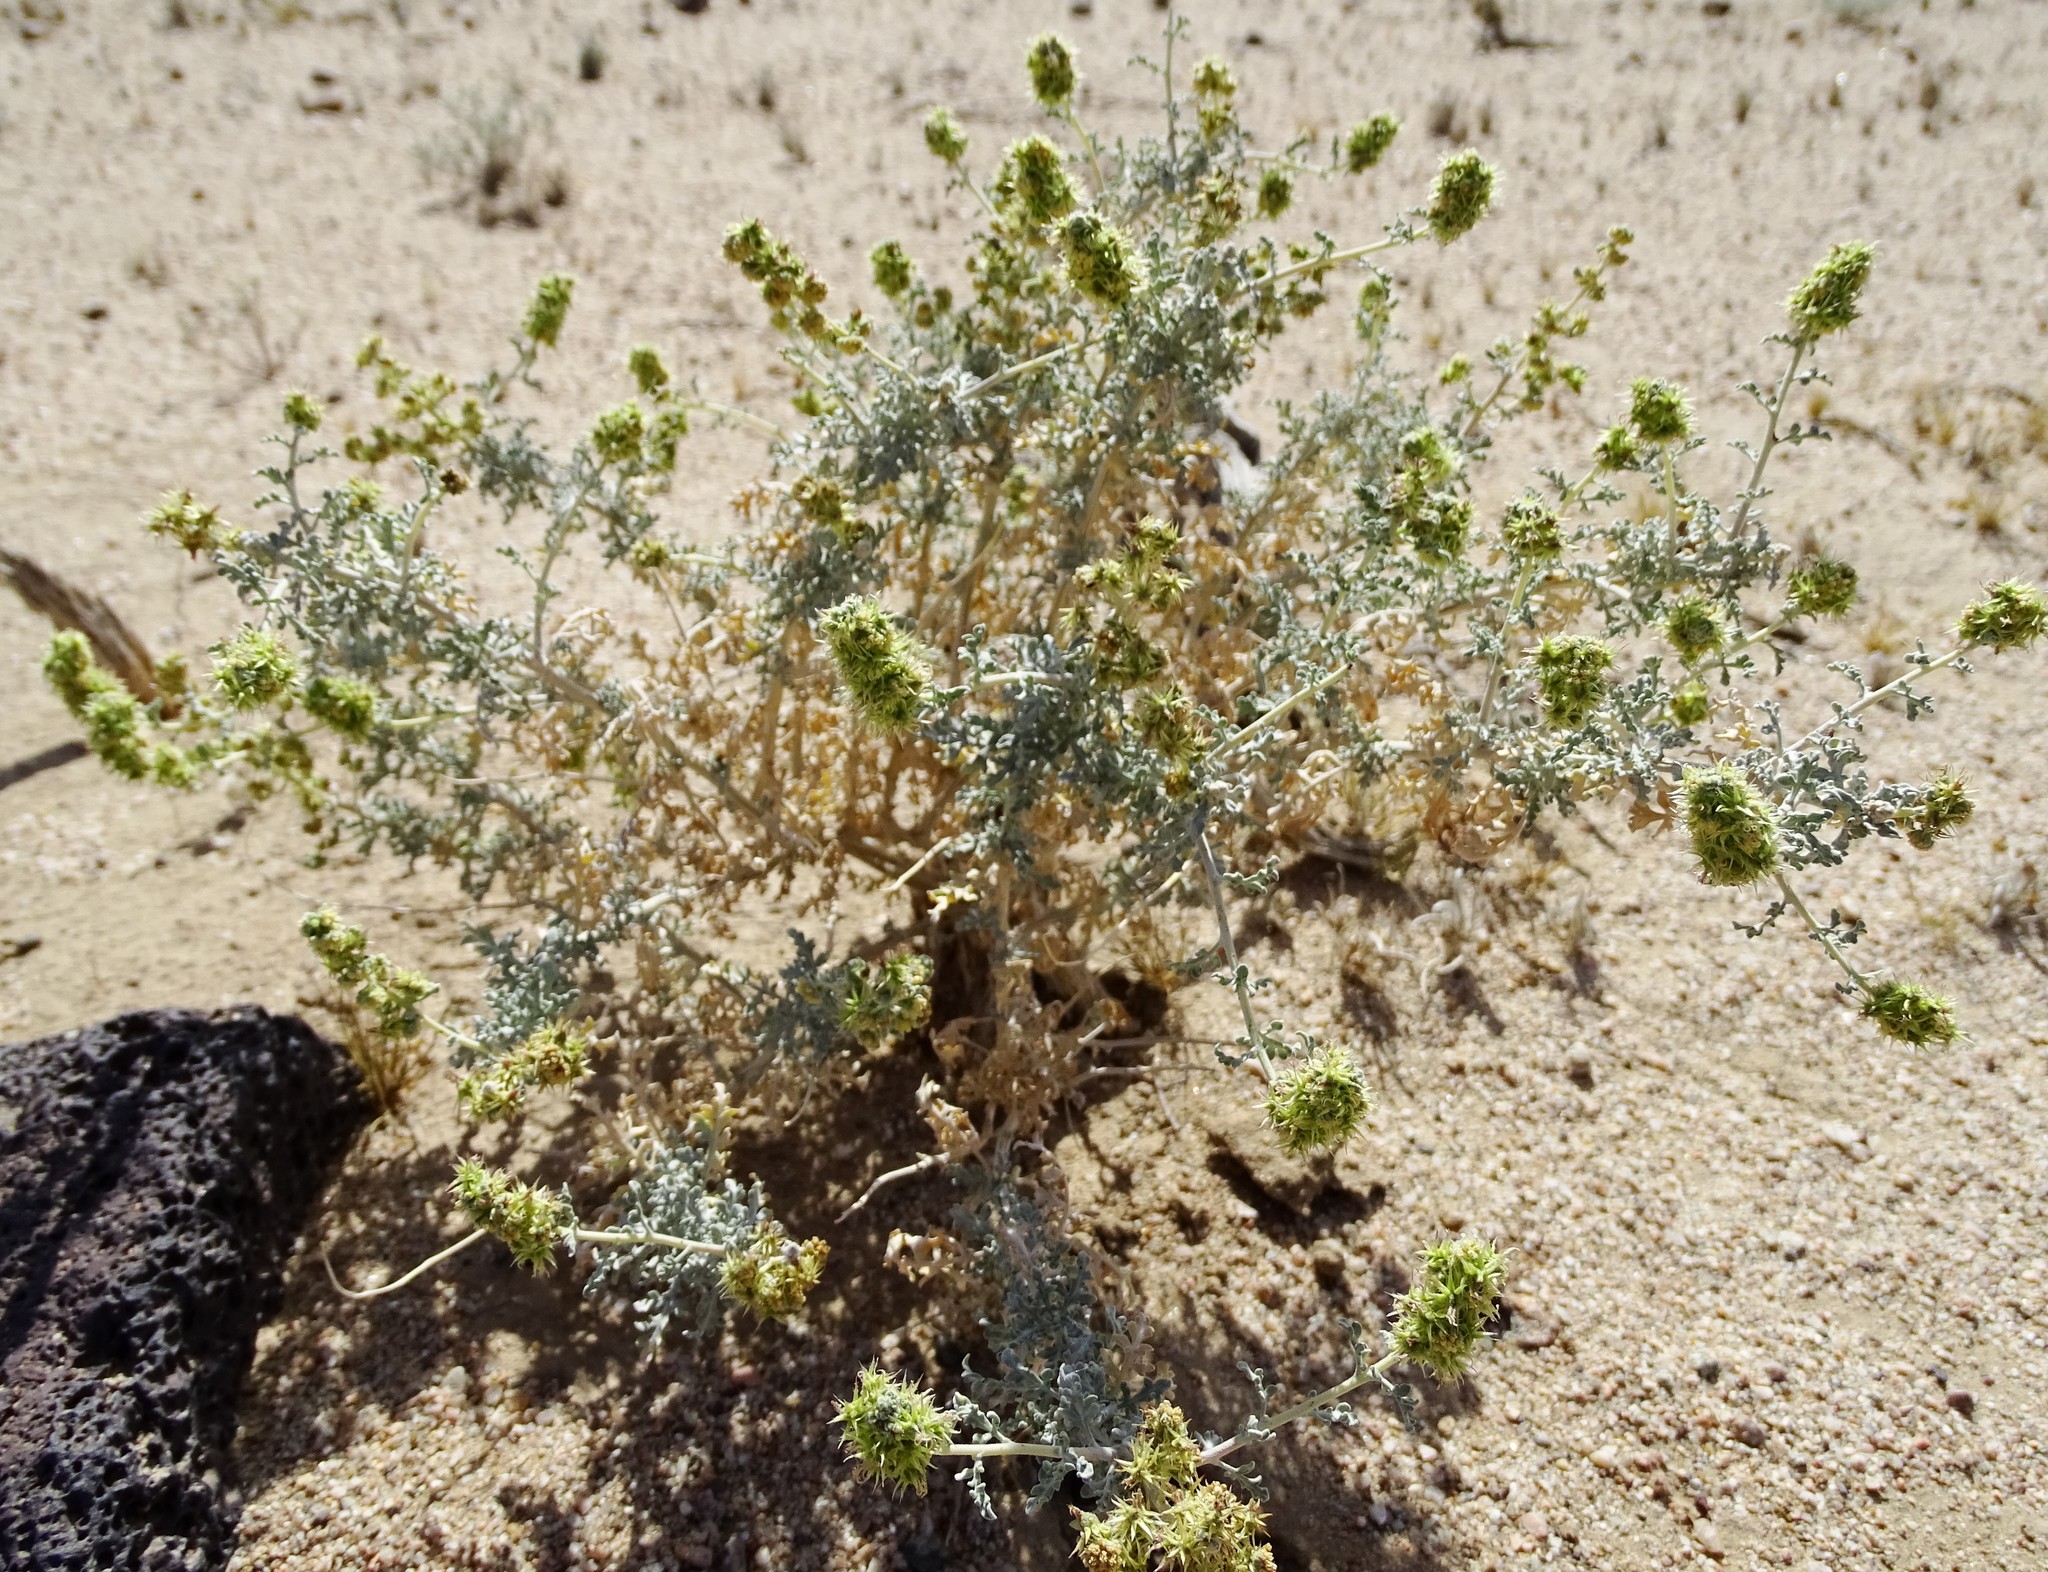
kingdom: Plantae
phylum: Tracheophyta
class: Magnoliopsida
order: Asterales
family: Asteraceae
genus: Ambrosia
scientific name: Ambrosia dumosa
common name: Bur-sage
